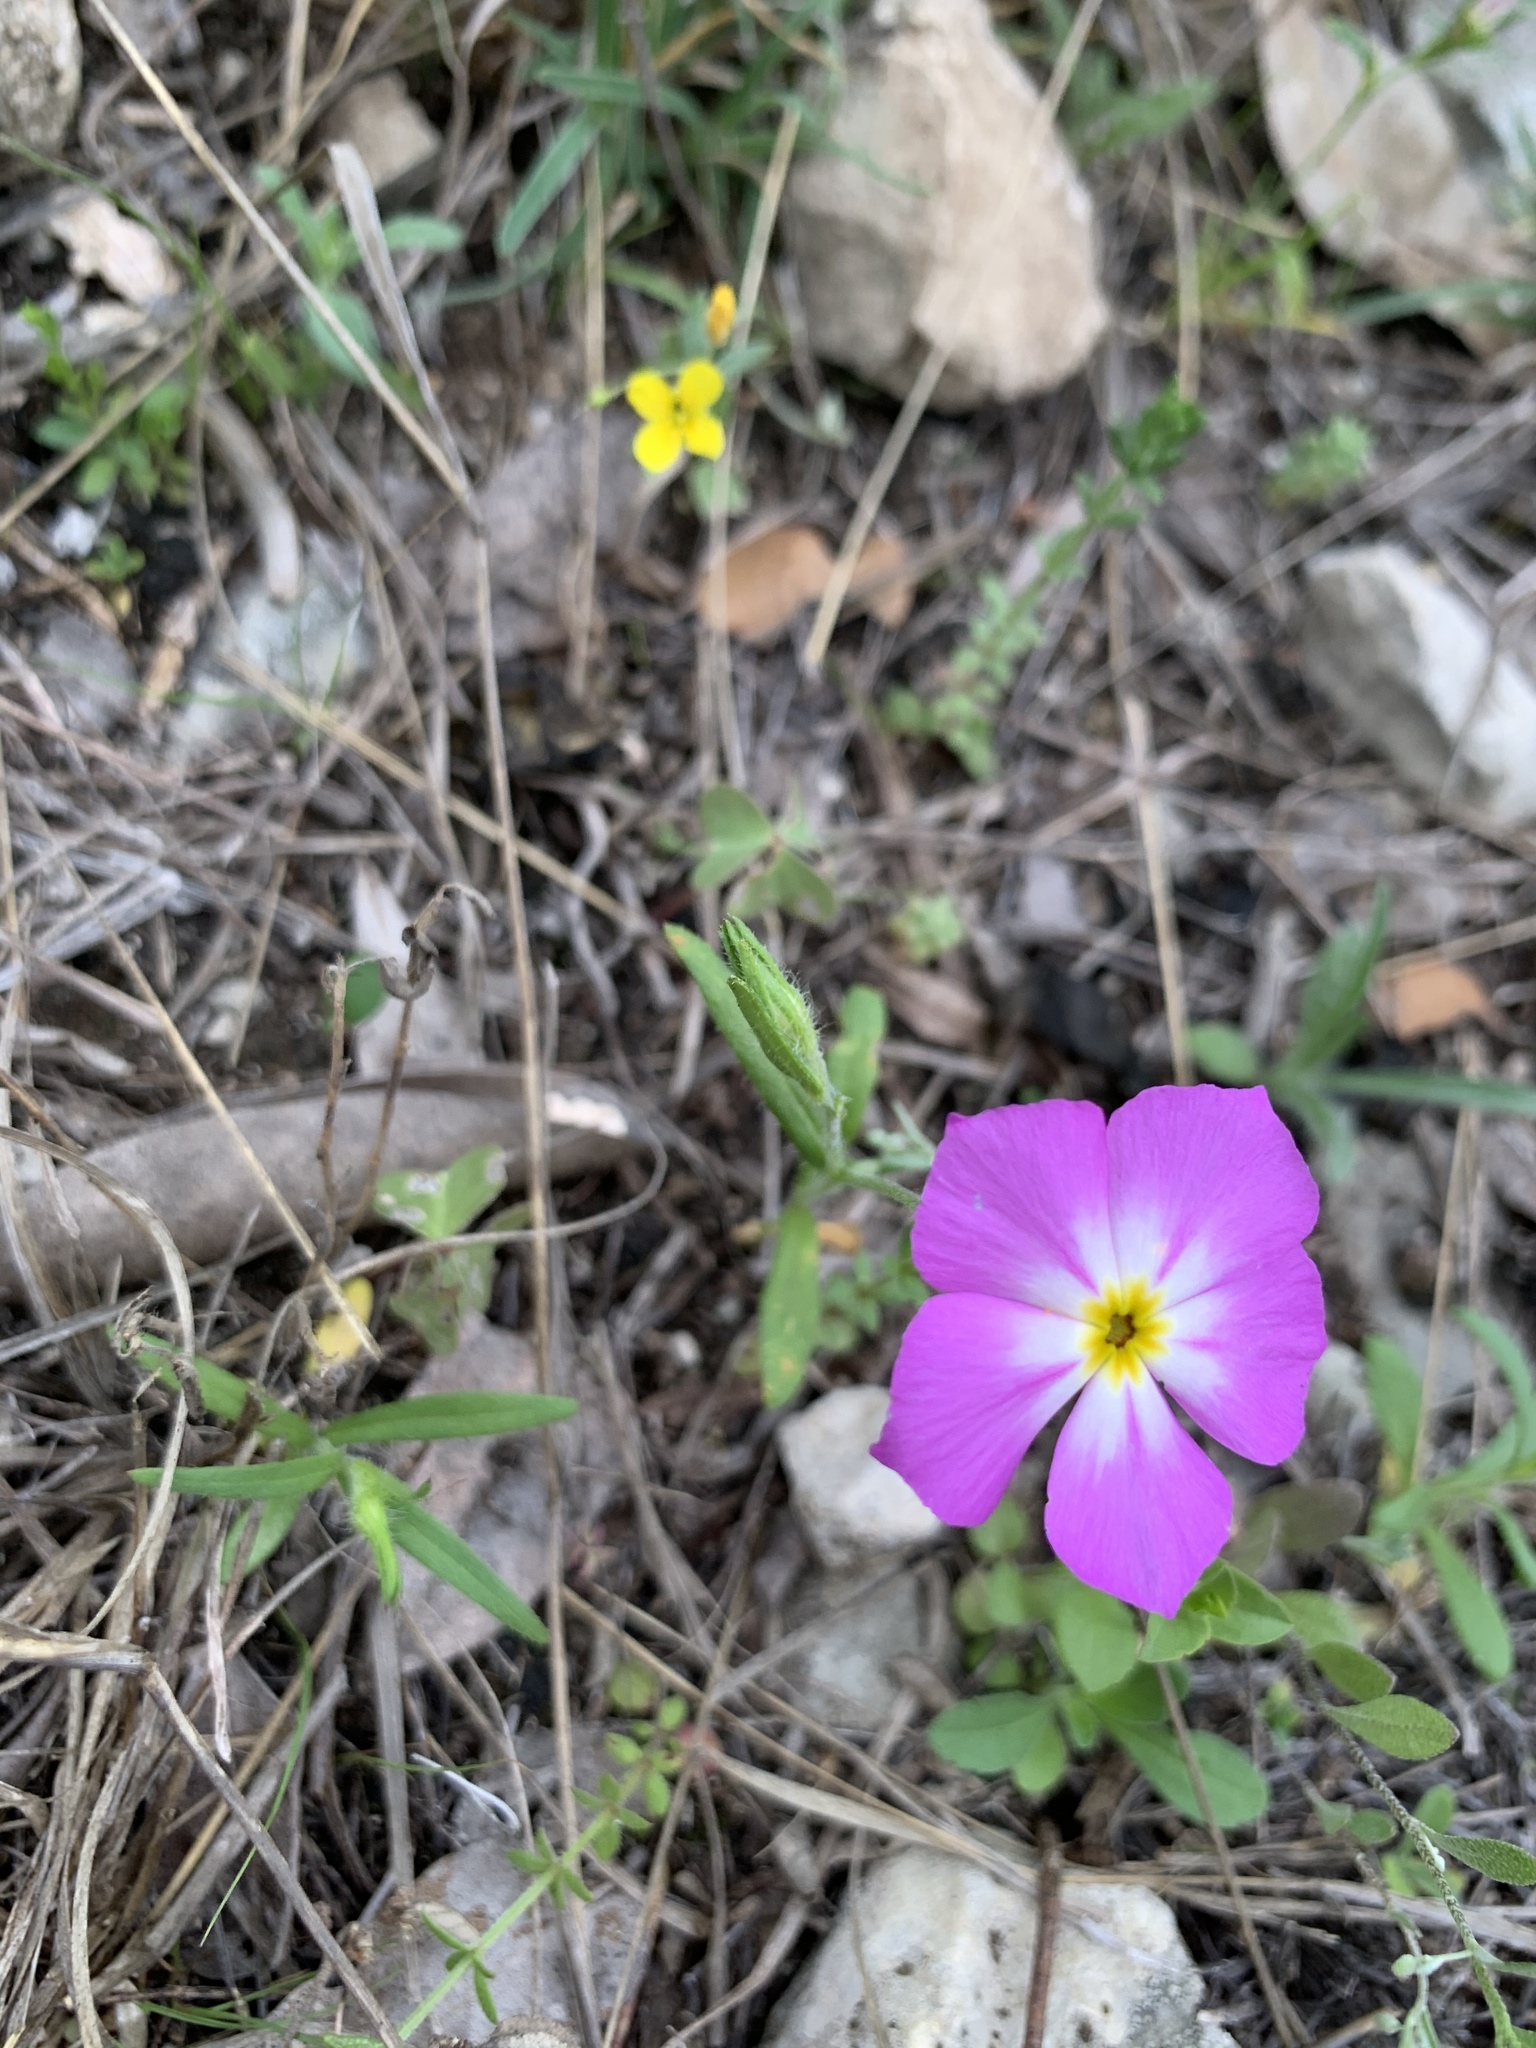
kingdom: Plantae
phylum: Tracheophyta
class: Magnoliopsida
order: Ericales
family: Polemoniaceae
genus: Phlox
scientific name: Phlox roemeriana
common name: Roemer's phlox
